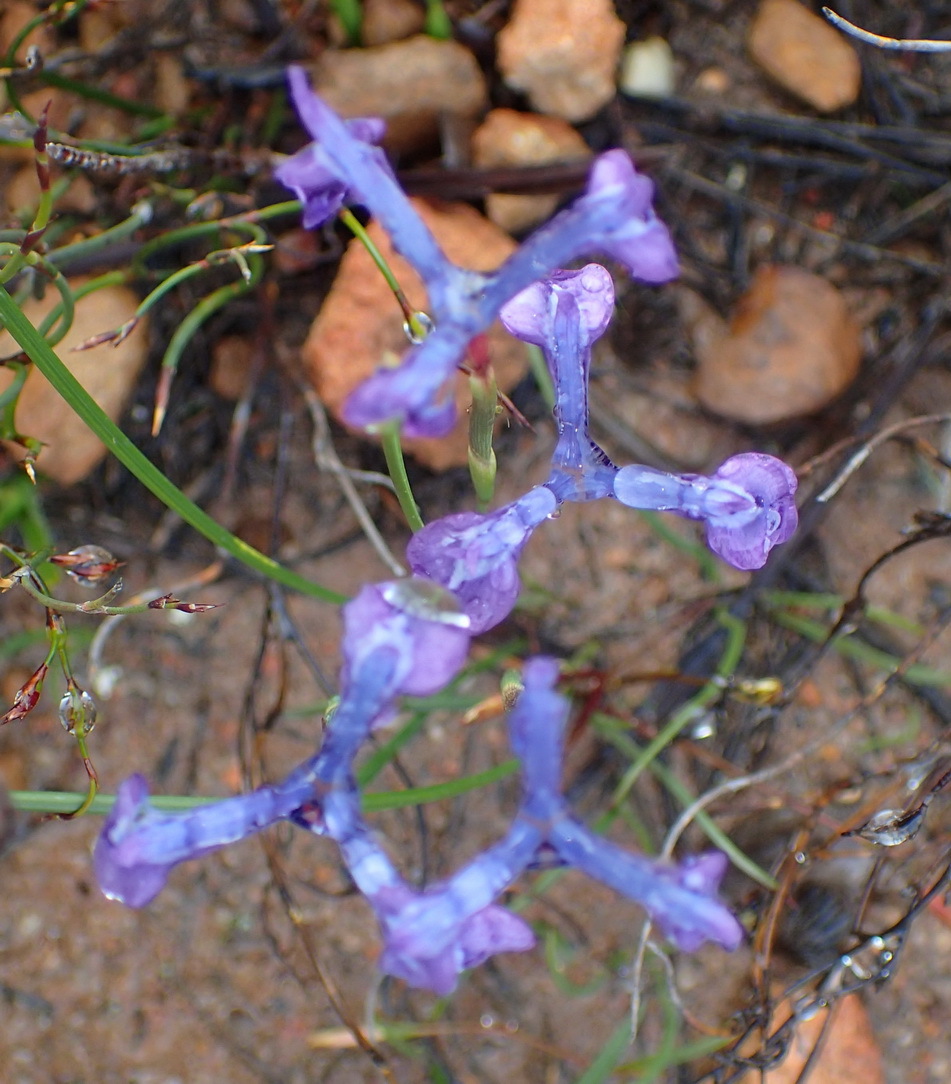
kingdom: Plantae
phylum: Tracheophyta
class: Liliopsida
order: Asparagales
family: Iridaceae
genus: Moraea
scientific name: Moraea tripetala
